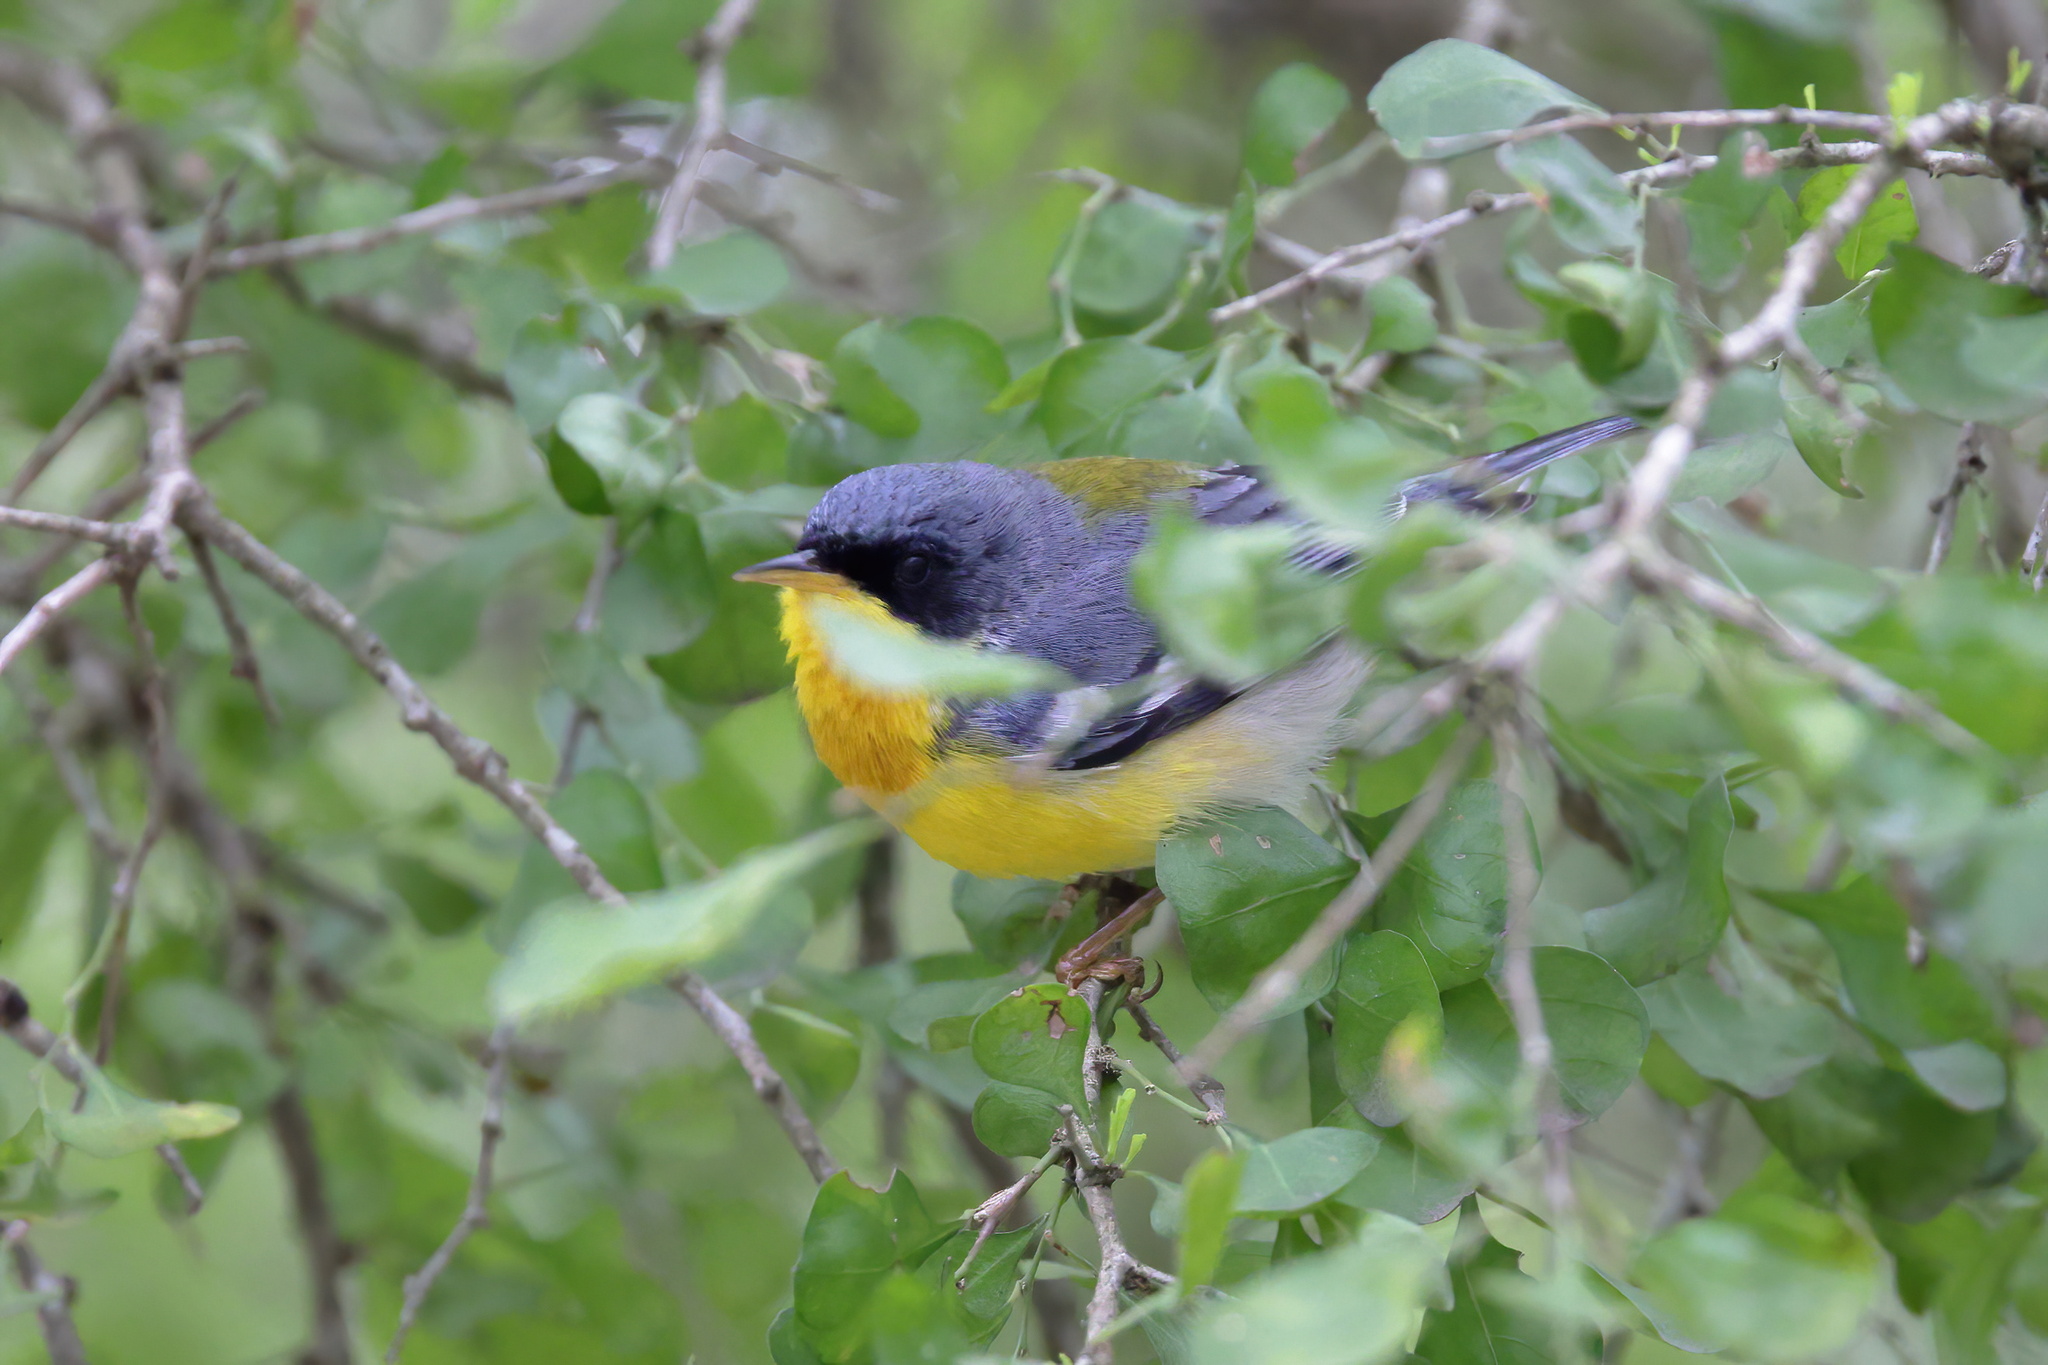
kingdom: Animalia
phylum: Chordata
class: Aves
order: Passeriformes
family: Parulidae
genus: Setophaga
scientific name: Setophaga pitiayumi
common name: Tropical parula
